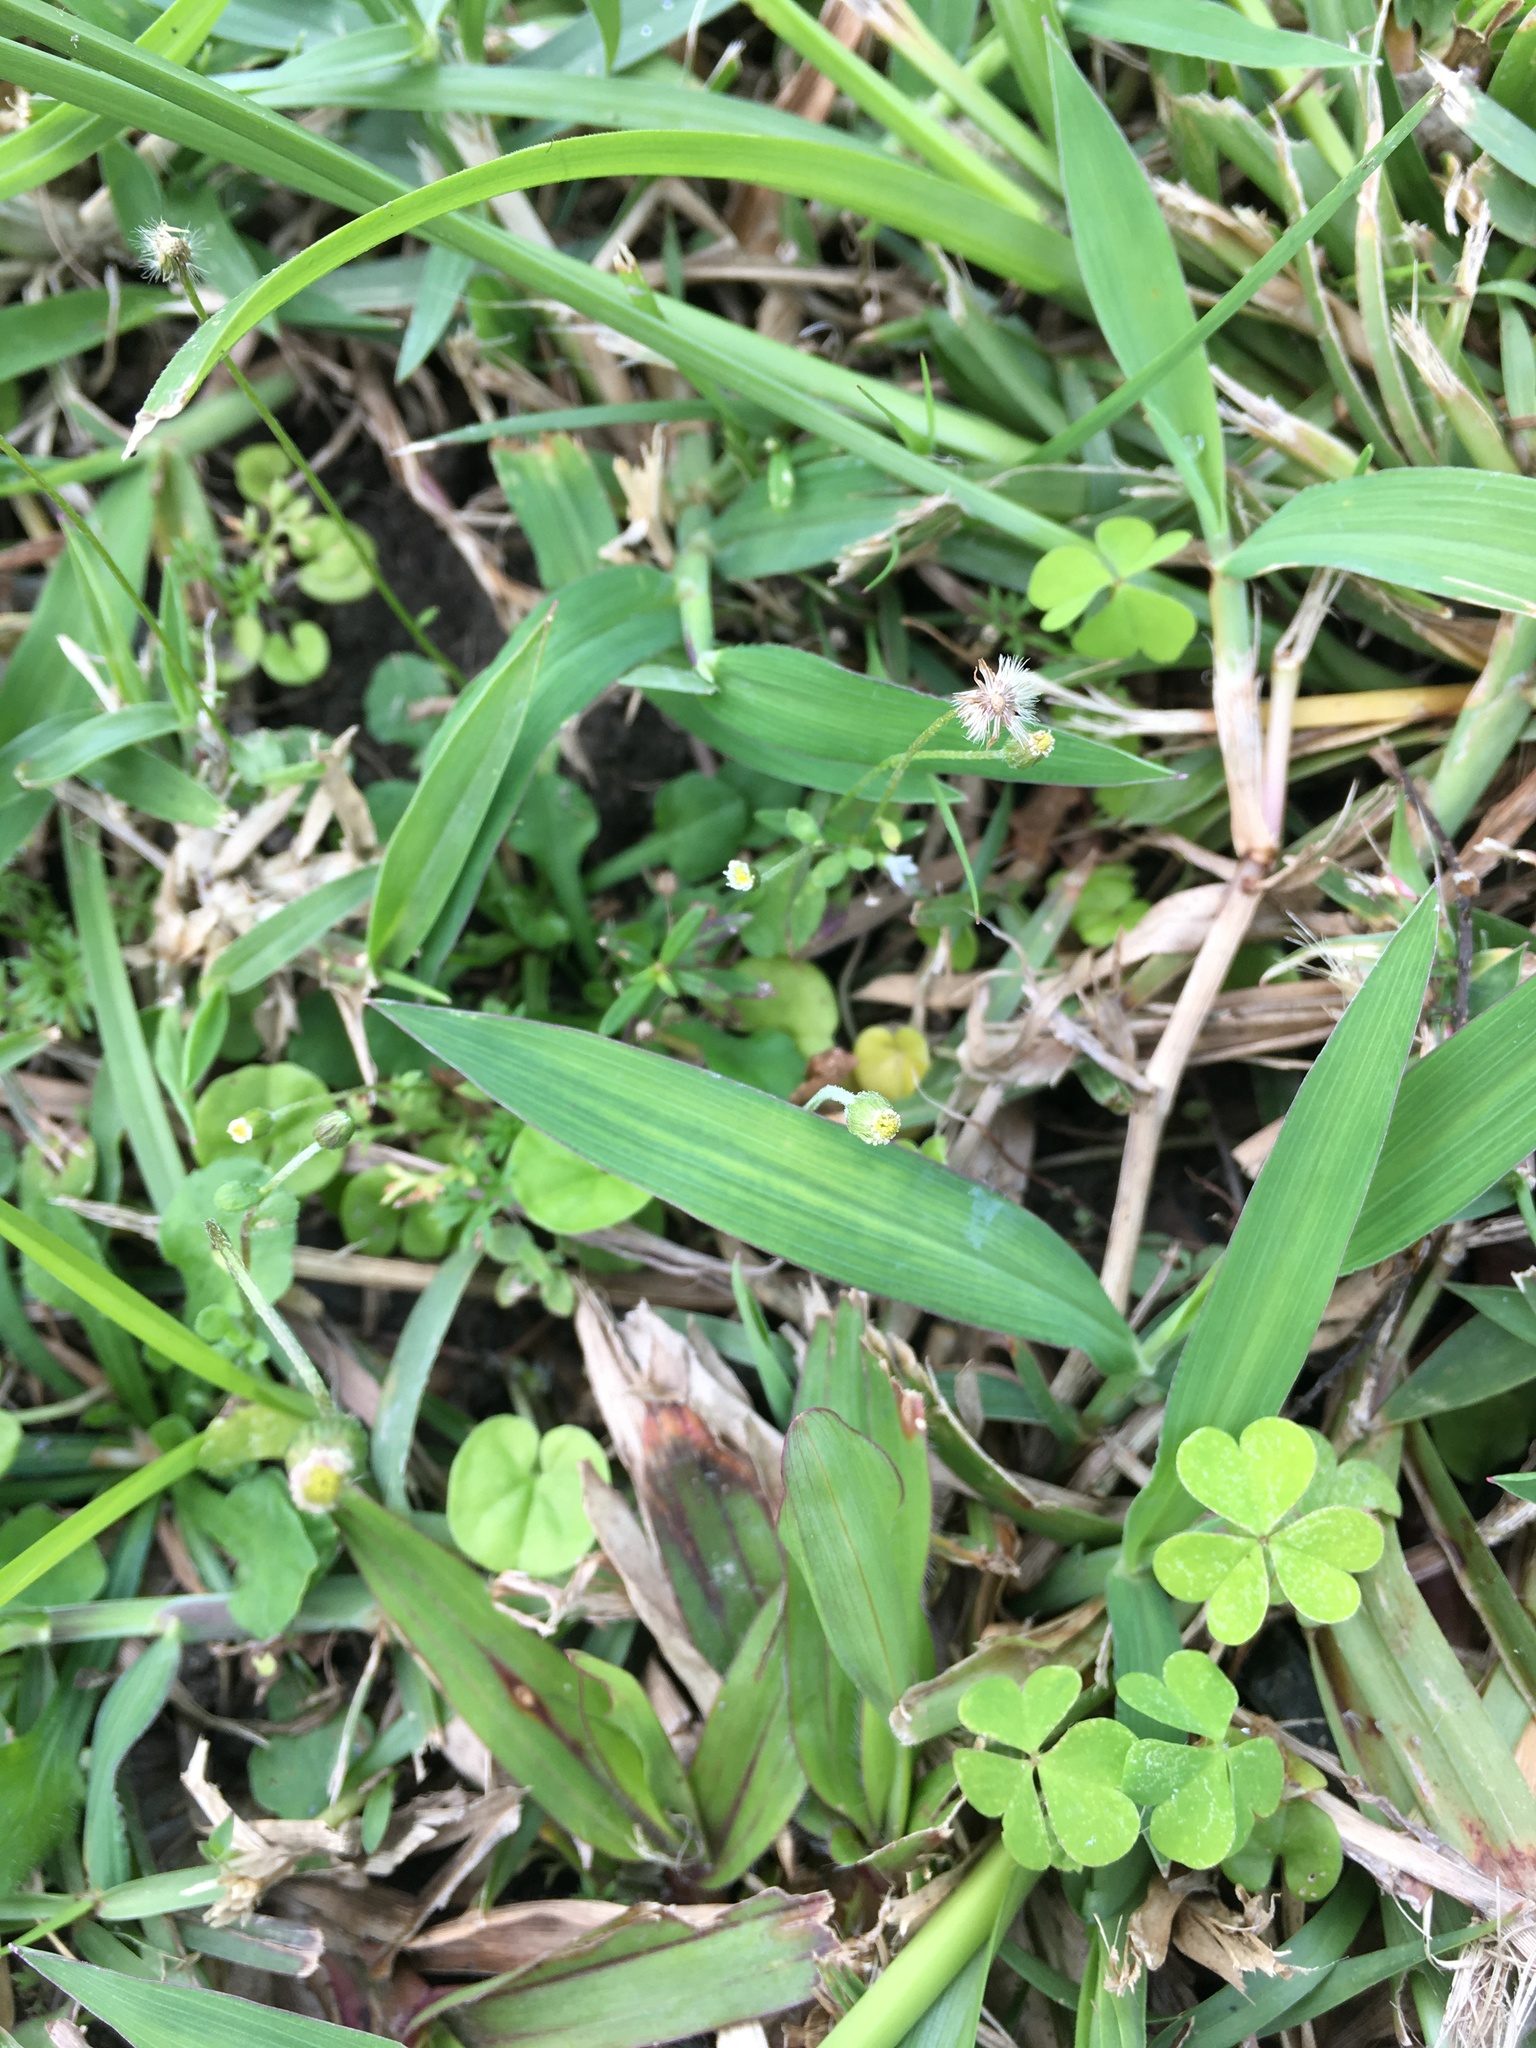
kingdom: Plantae
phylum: Tracheophyta
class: Magnoliopsida
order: Asterales
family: Asteraceae
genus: Erigeron
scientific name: Erigeron bellioides
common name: Bellorita
